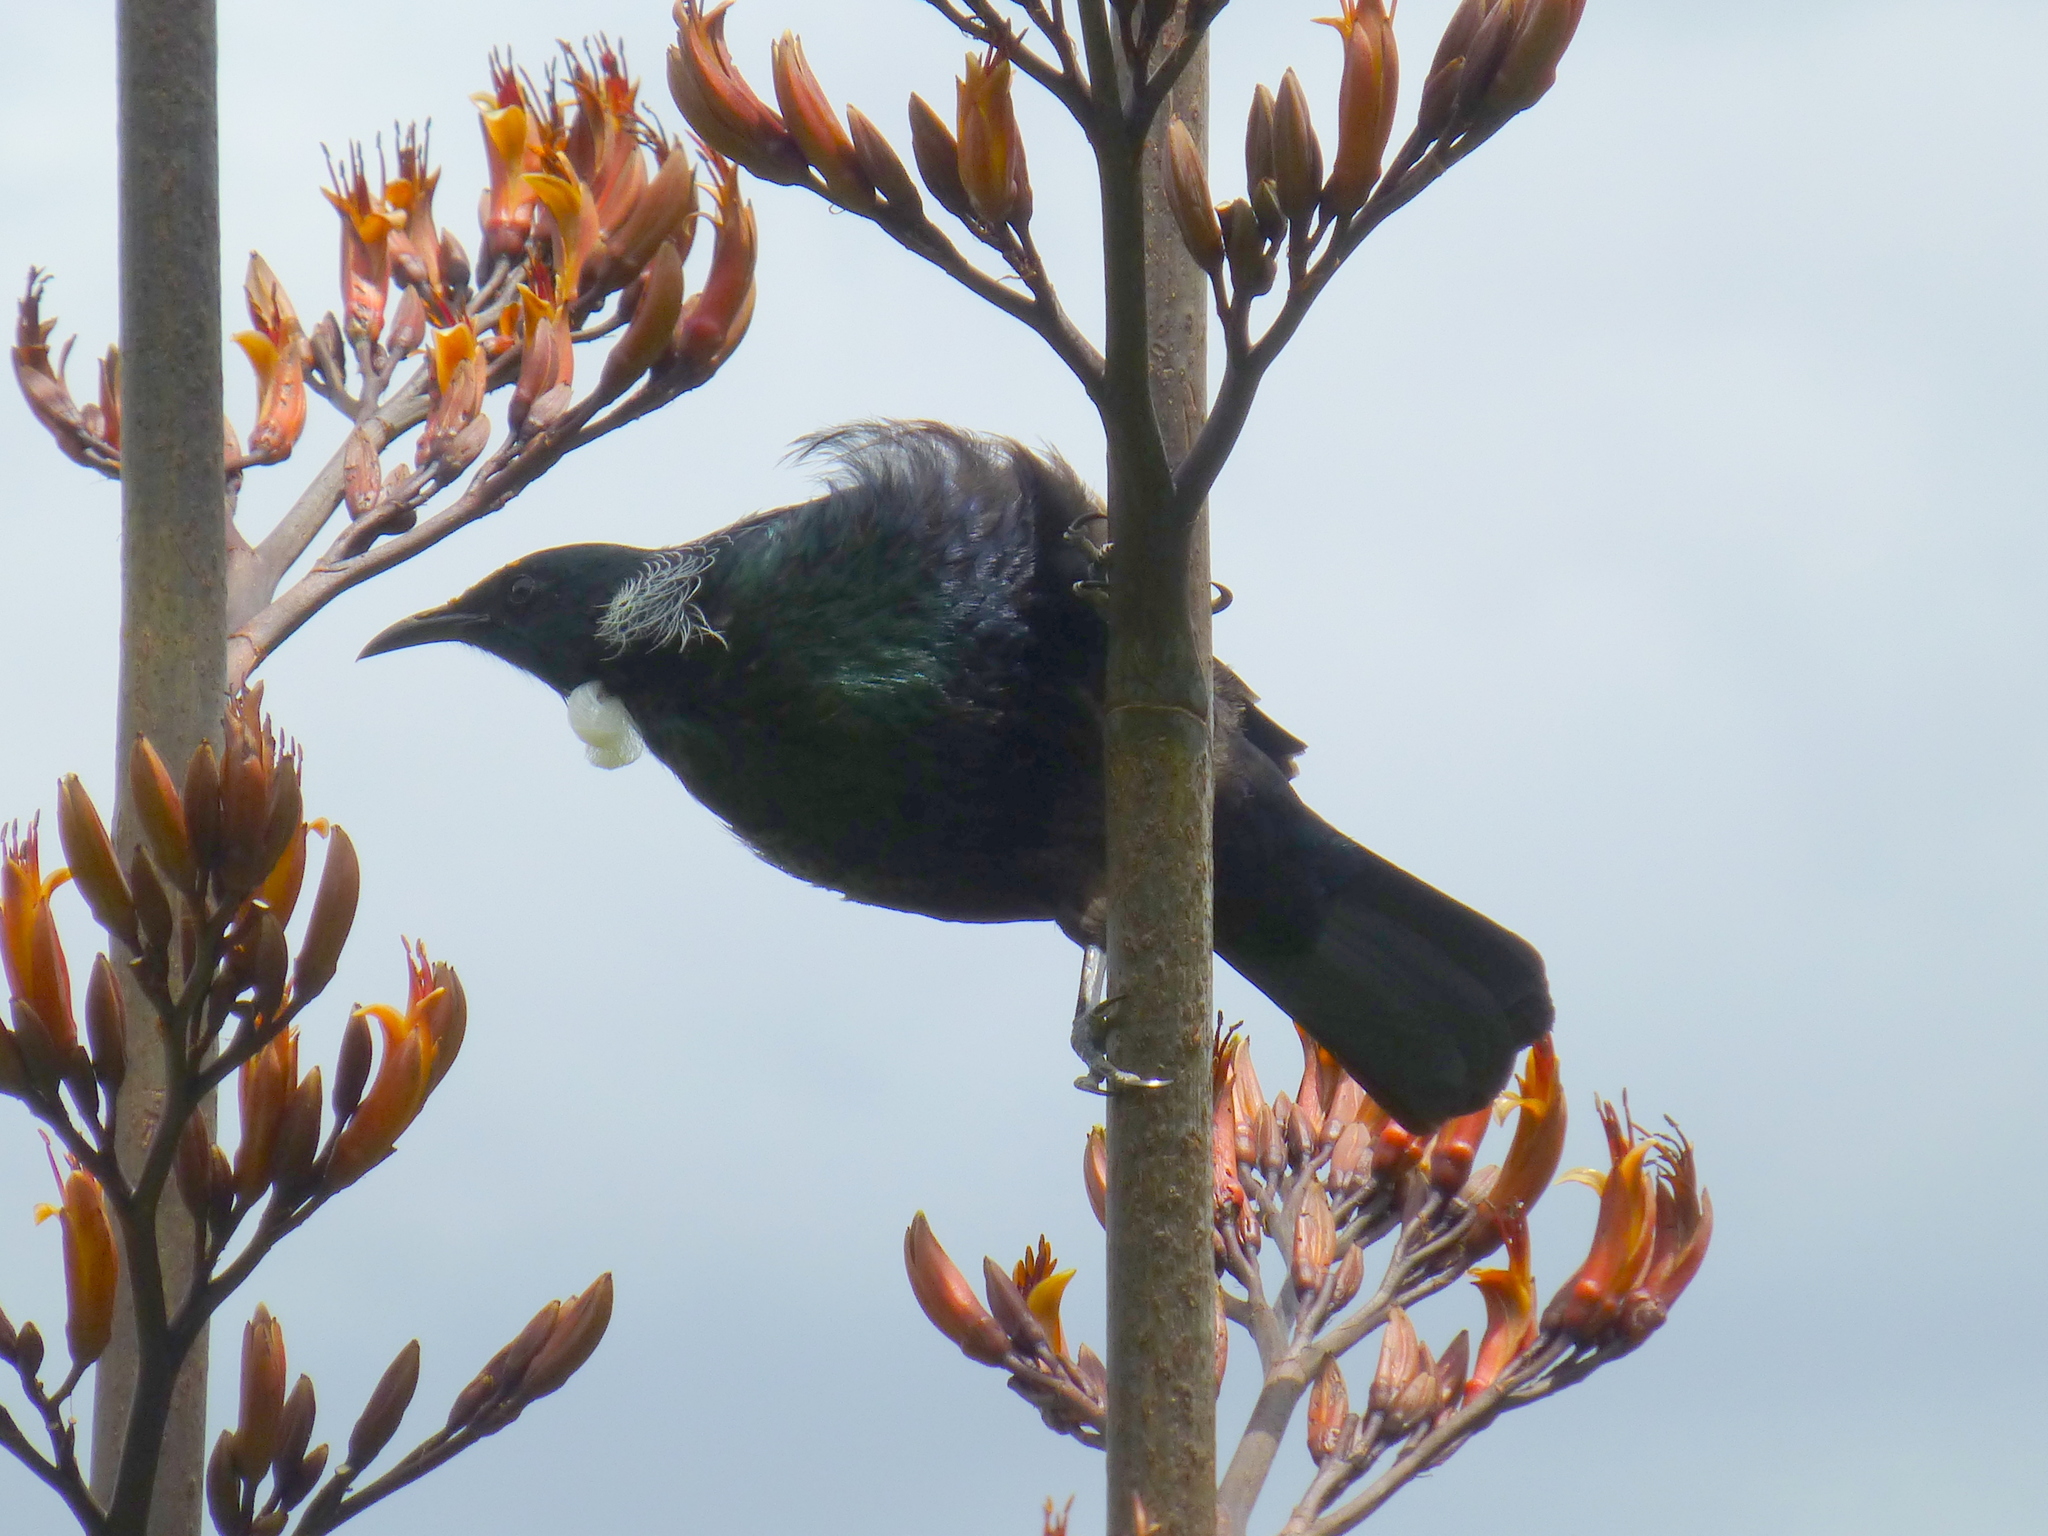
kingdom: Animalia
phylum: Chordata
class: Aves
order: Passeriformes
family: Meliphagidae
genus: Prosthemadera
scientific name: Prosthemadera novaeseelandiae
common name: Tui
